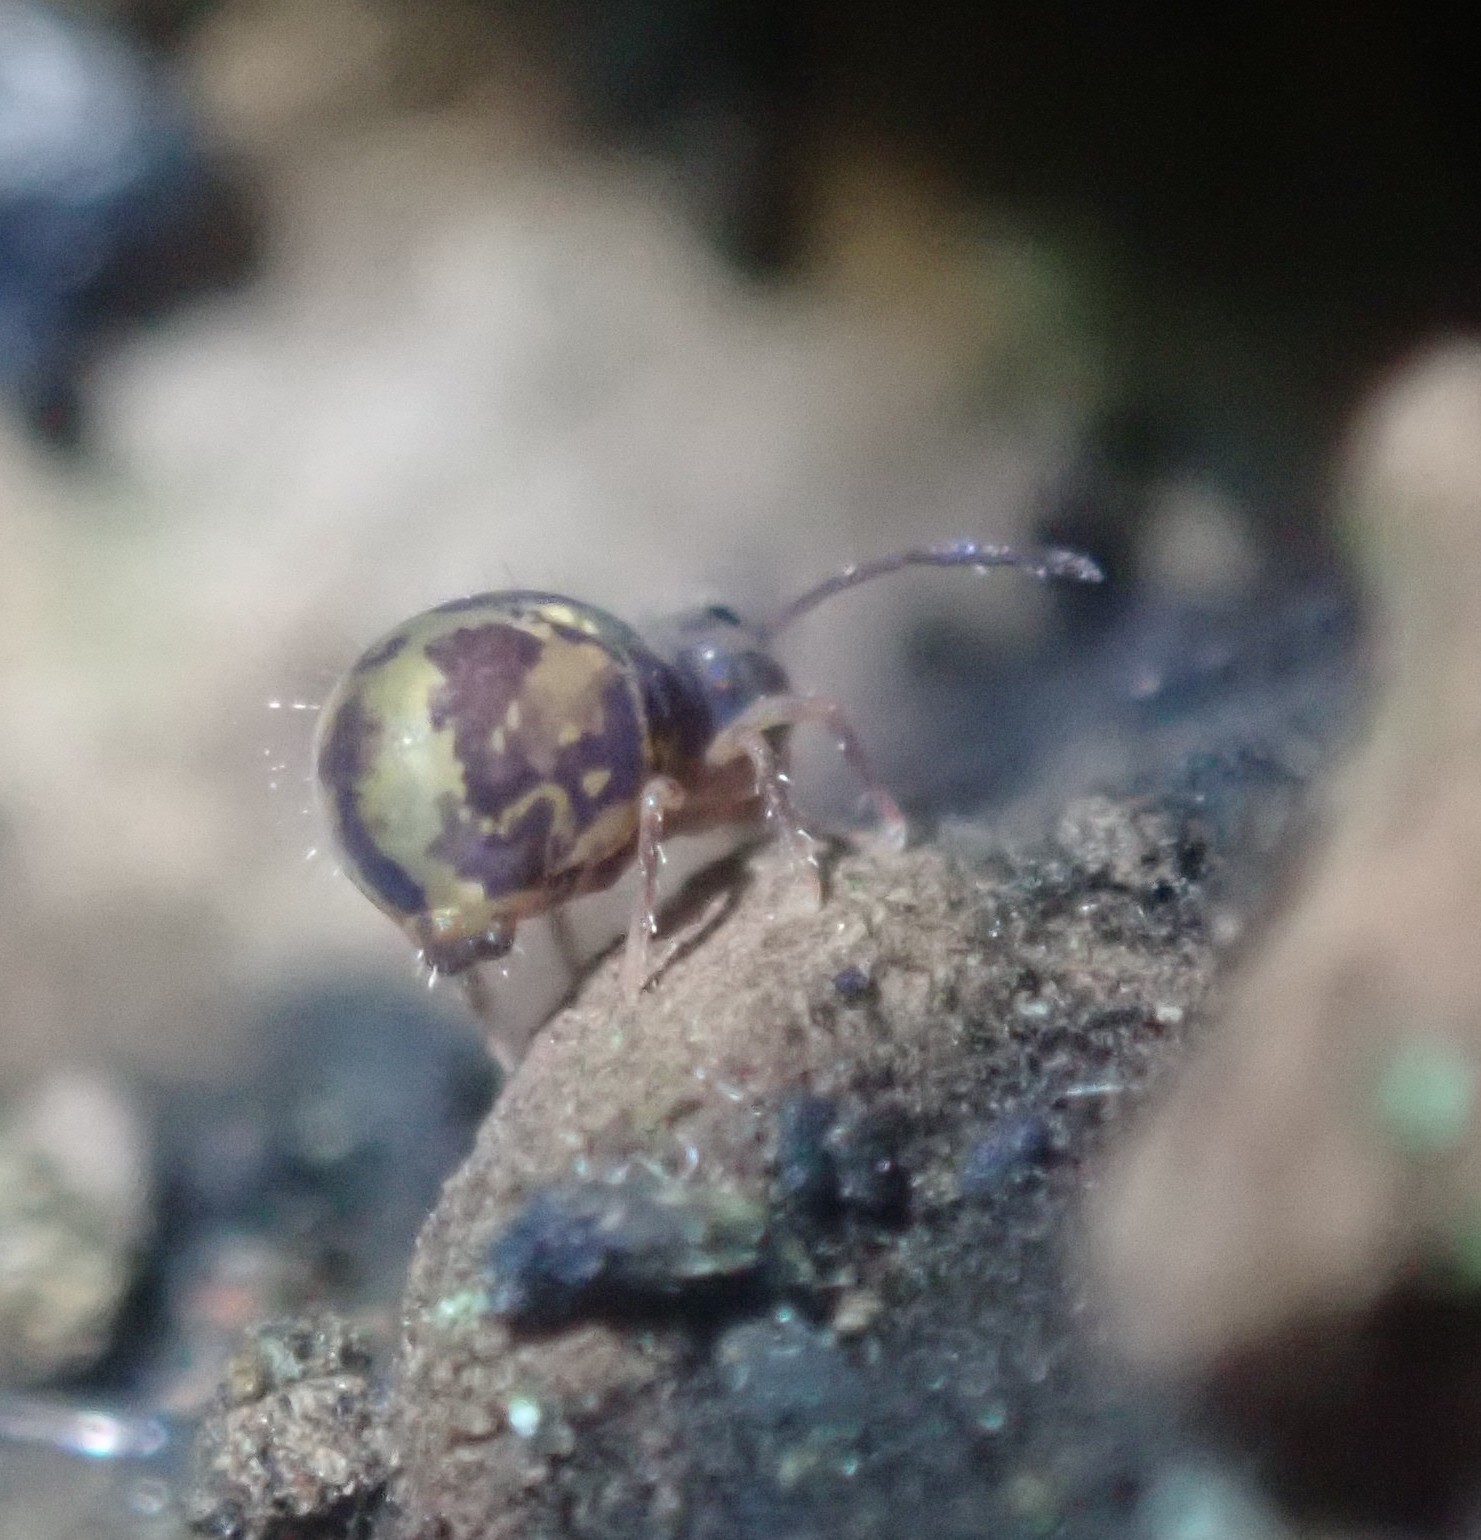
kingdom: Animalia
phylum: Arthropoda
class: Collembola
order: Symphypleona
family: Dicyrtomidae
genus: Dicyrtomina
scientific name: Dicyrtomina ornata
